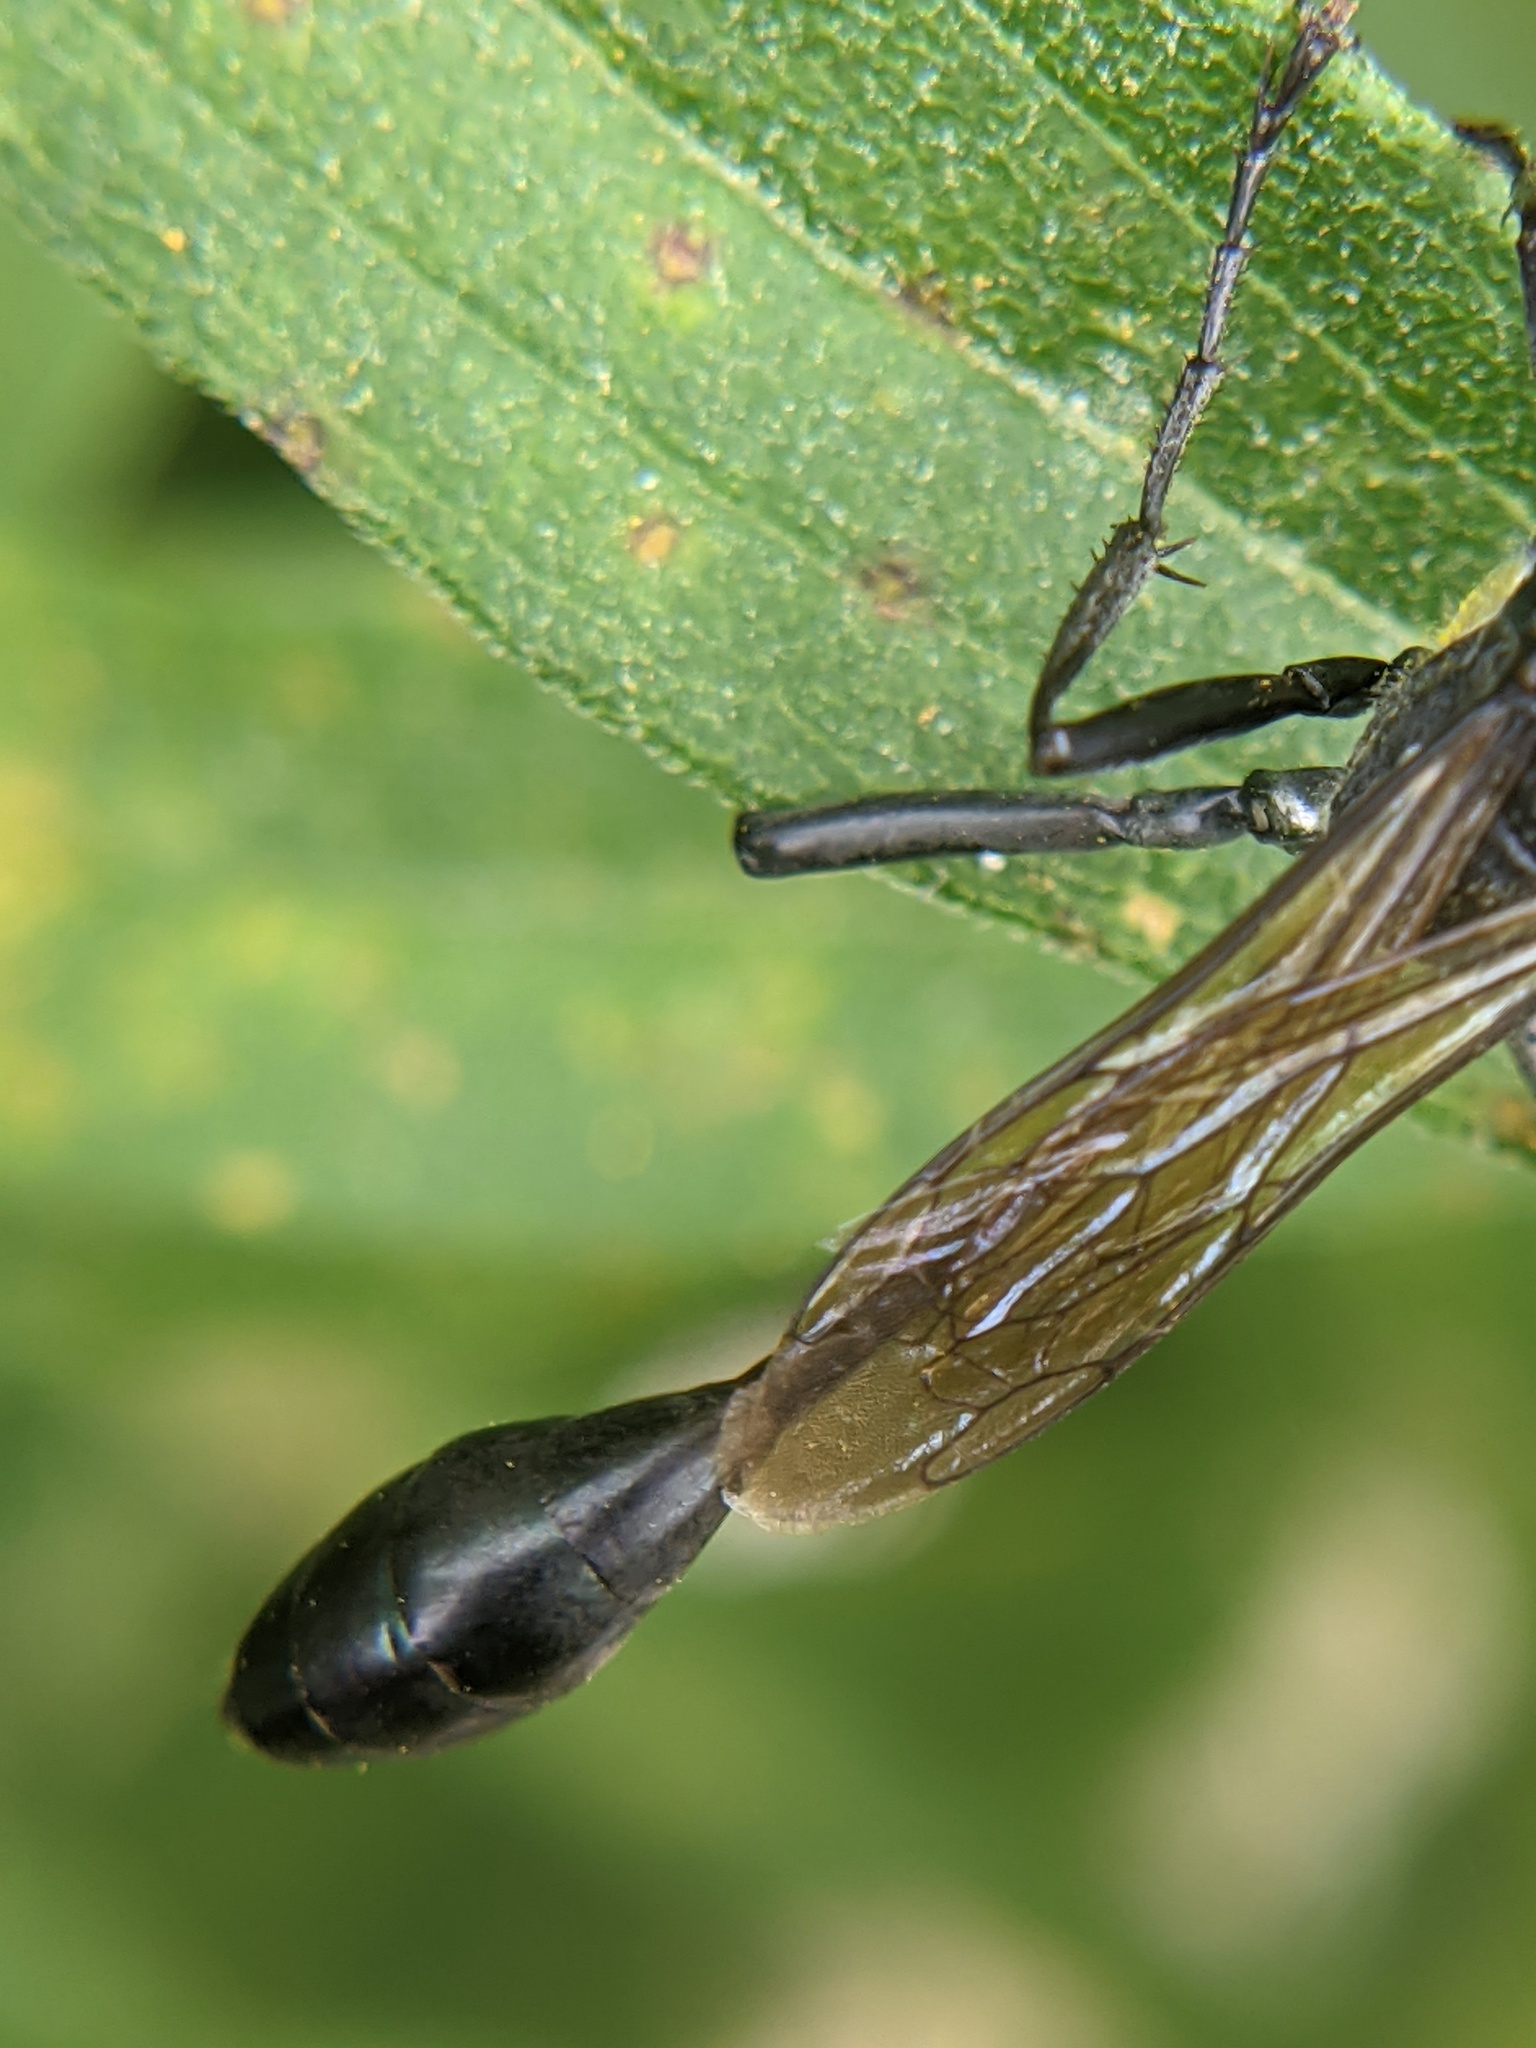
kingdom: Animalia
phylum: Arthropoda
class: Insecta
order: Hymenoptera
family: Sphecidae
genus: Eremnophila
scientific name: Eremnophila aureonotata
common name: Gold-marked thread-waisted wasp
